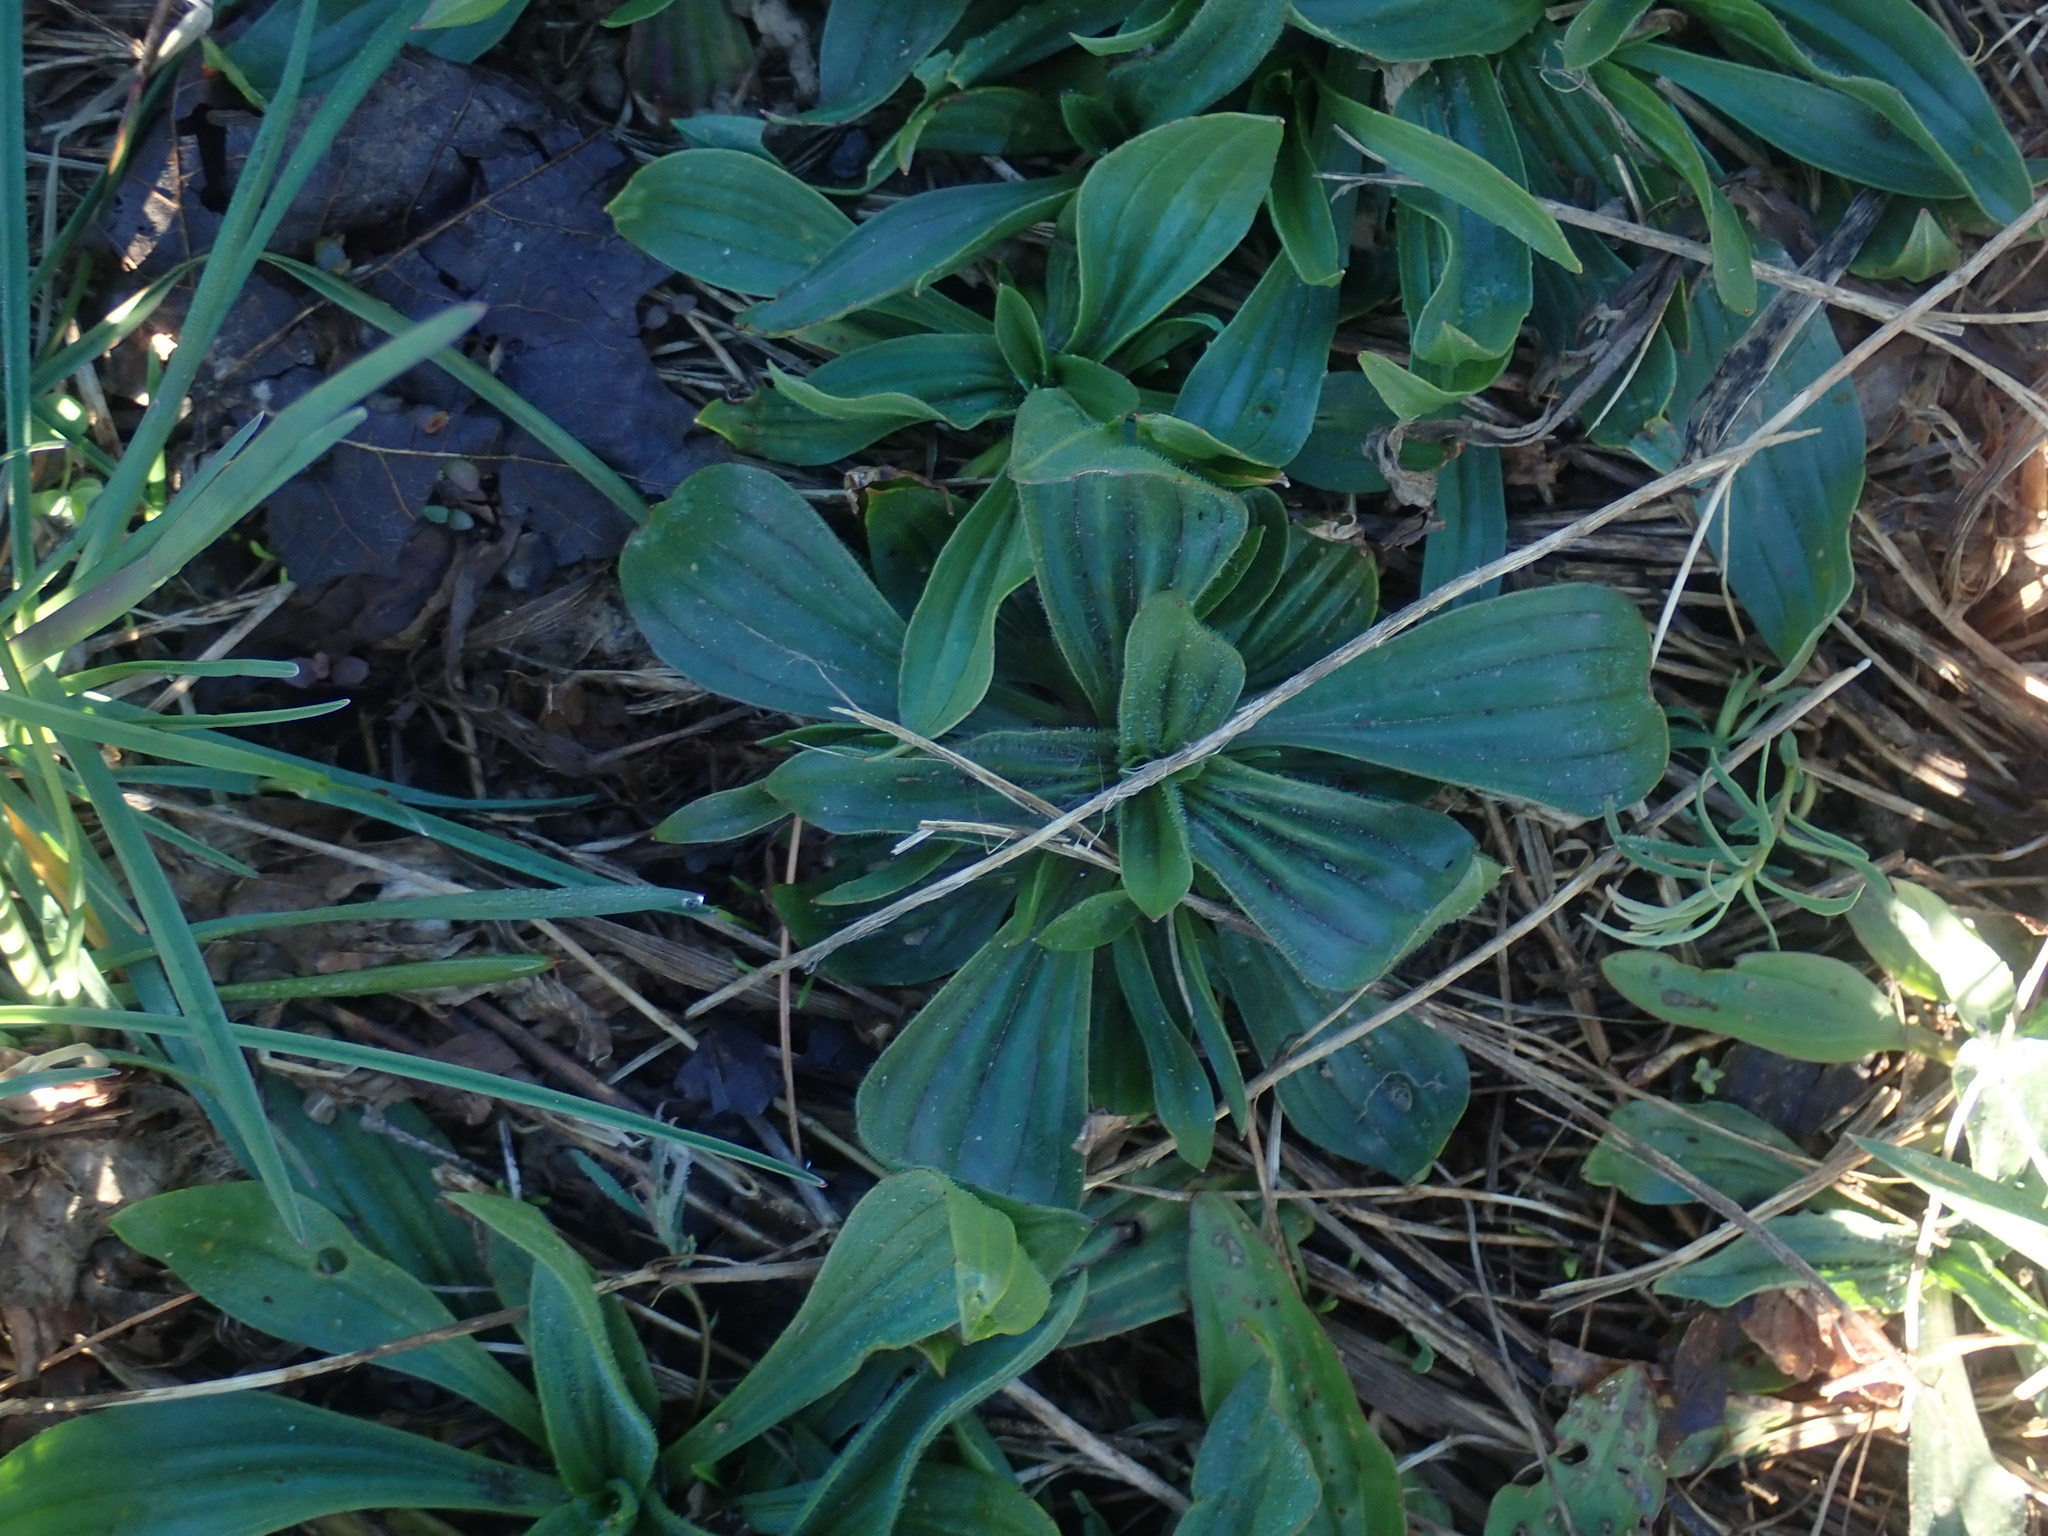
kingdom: Plantae
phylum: Tracheophyta
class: Magnoliopsida
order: Lamiales
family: Plantaginaceae
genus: Plantago
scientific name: Plantago lanceolata
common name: Ribwort plantain
